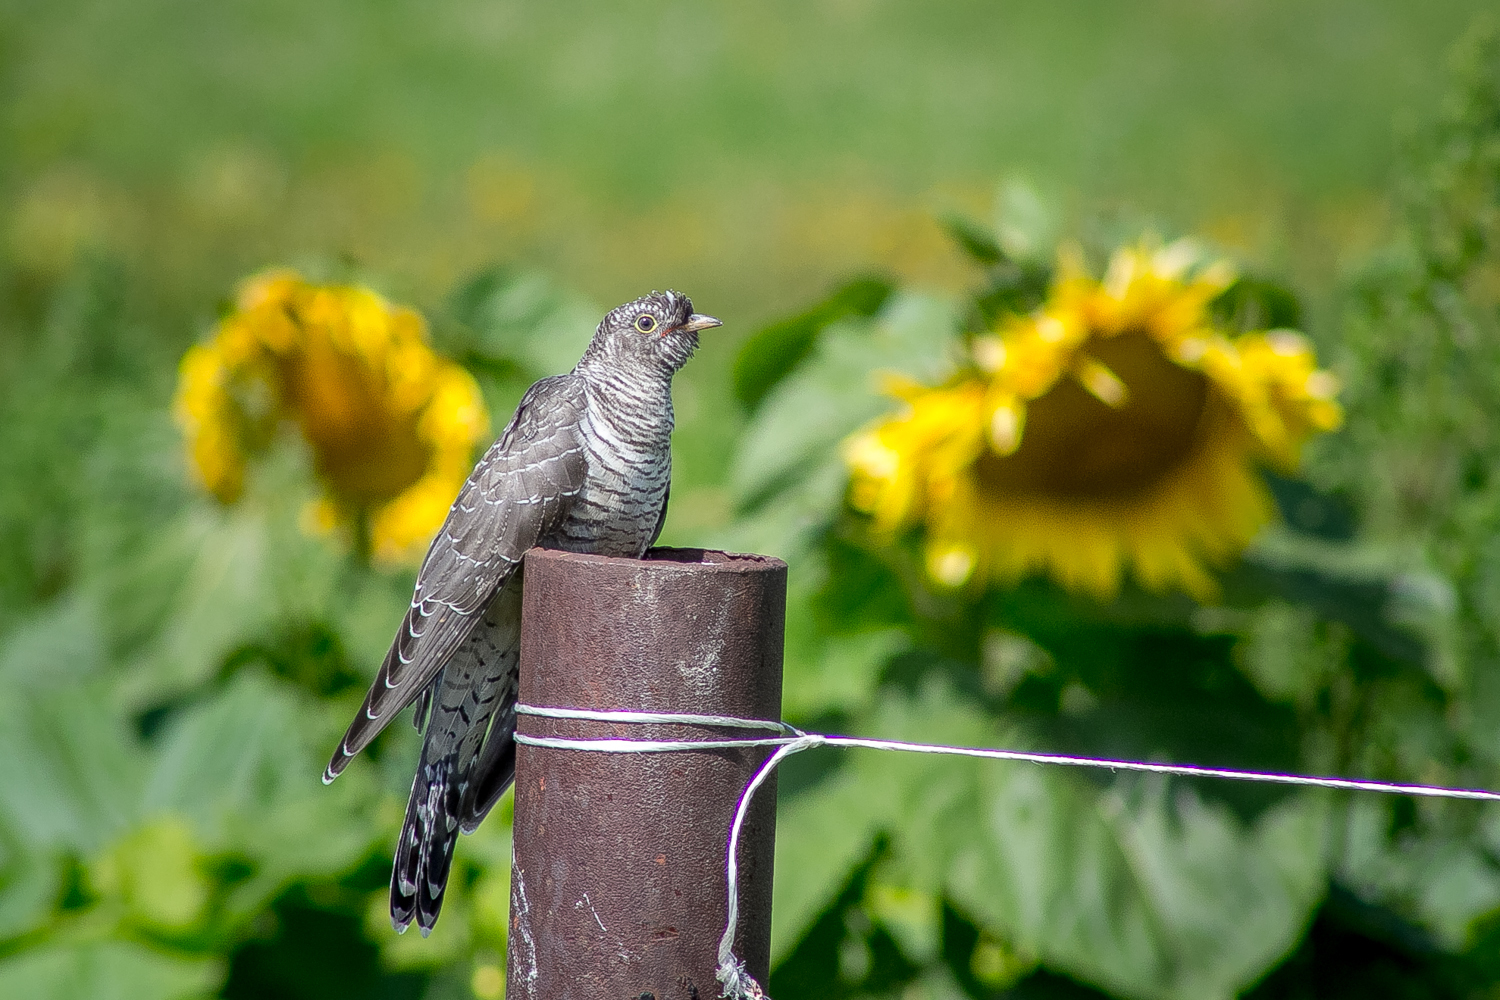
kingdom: Animalia
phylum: Chordata
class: Aves
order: Cuculiformes
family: Cuculidae
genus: Cuculus
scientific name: Cuculus canorus
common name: Common cuckoo
